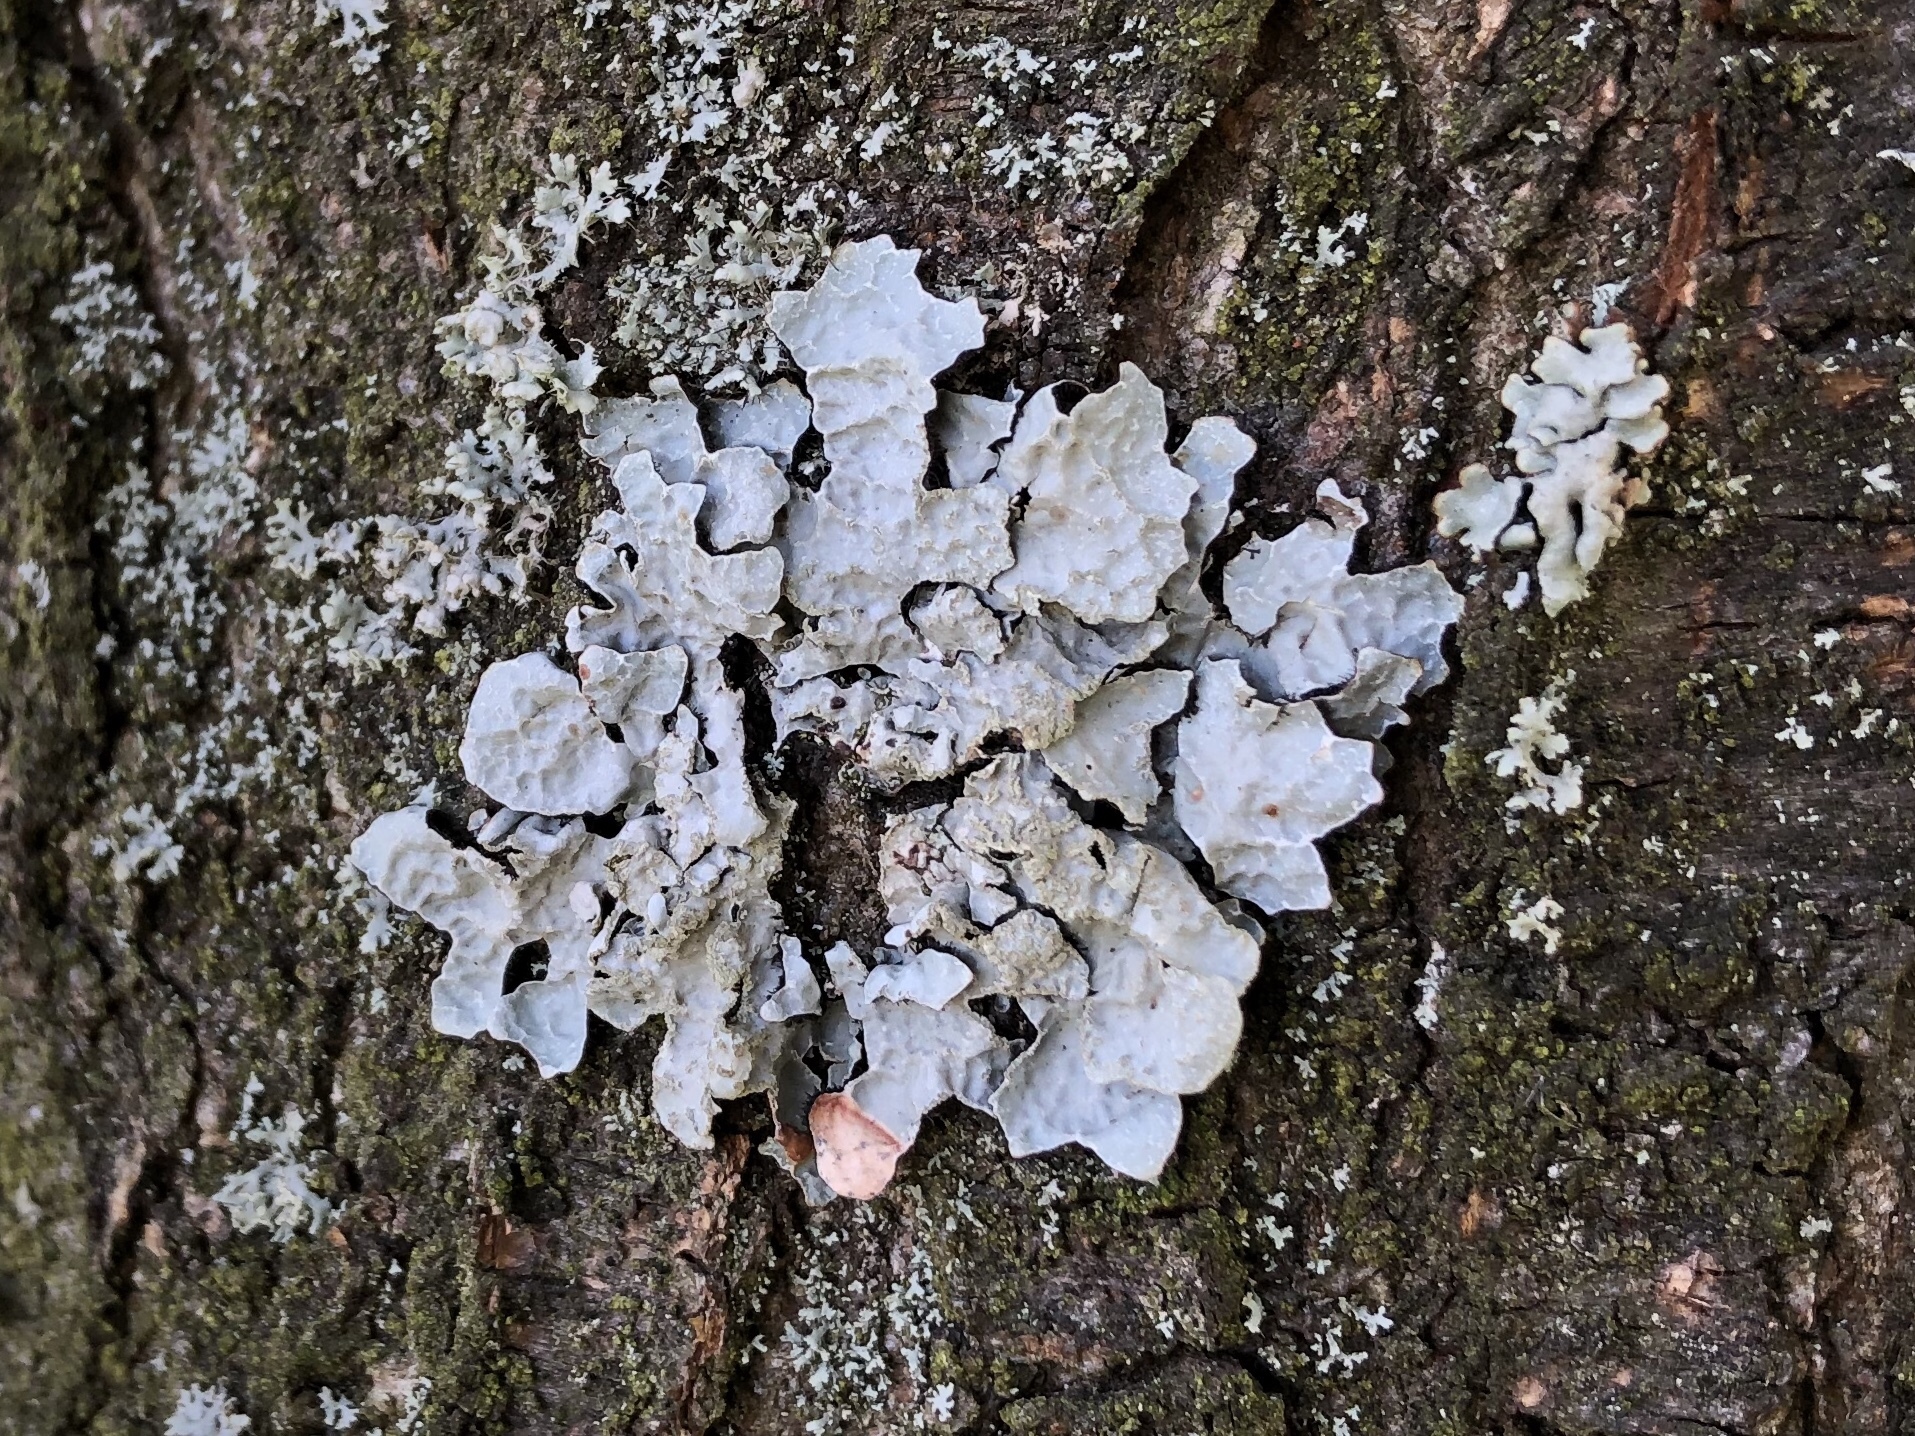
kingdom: Fungi
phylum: Ascomycota
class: Lecanoromycetes
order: Lecanorales
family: Parmeliaceae
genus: Parmelia
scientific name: Parmelia sulcata
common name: Netted shield lichen
